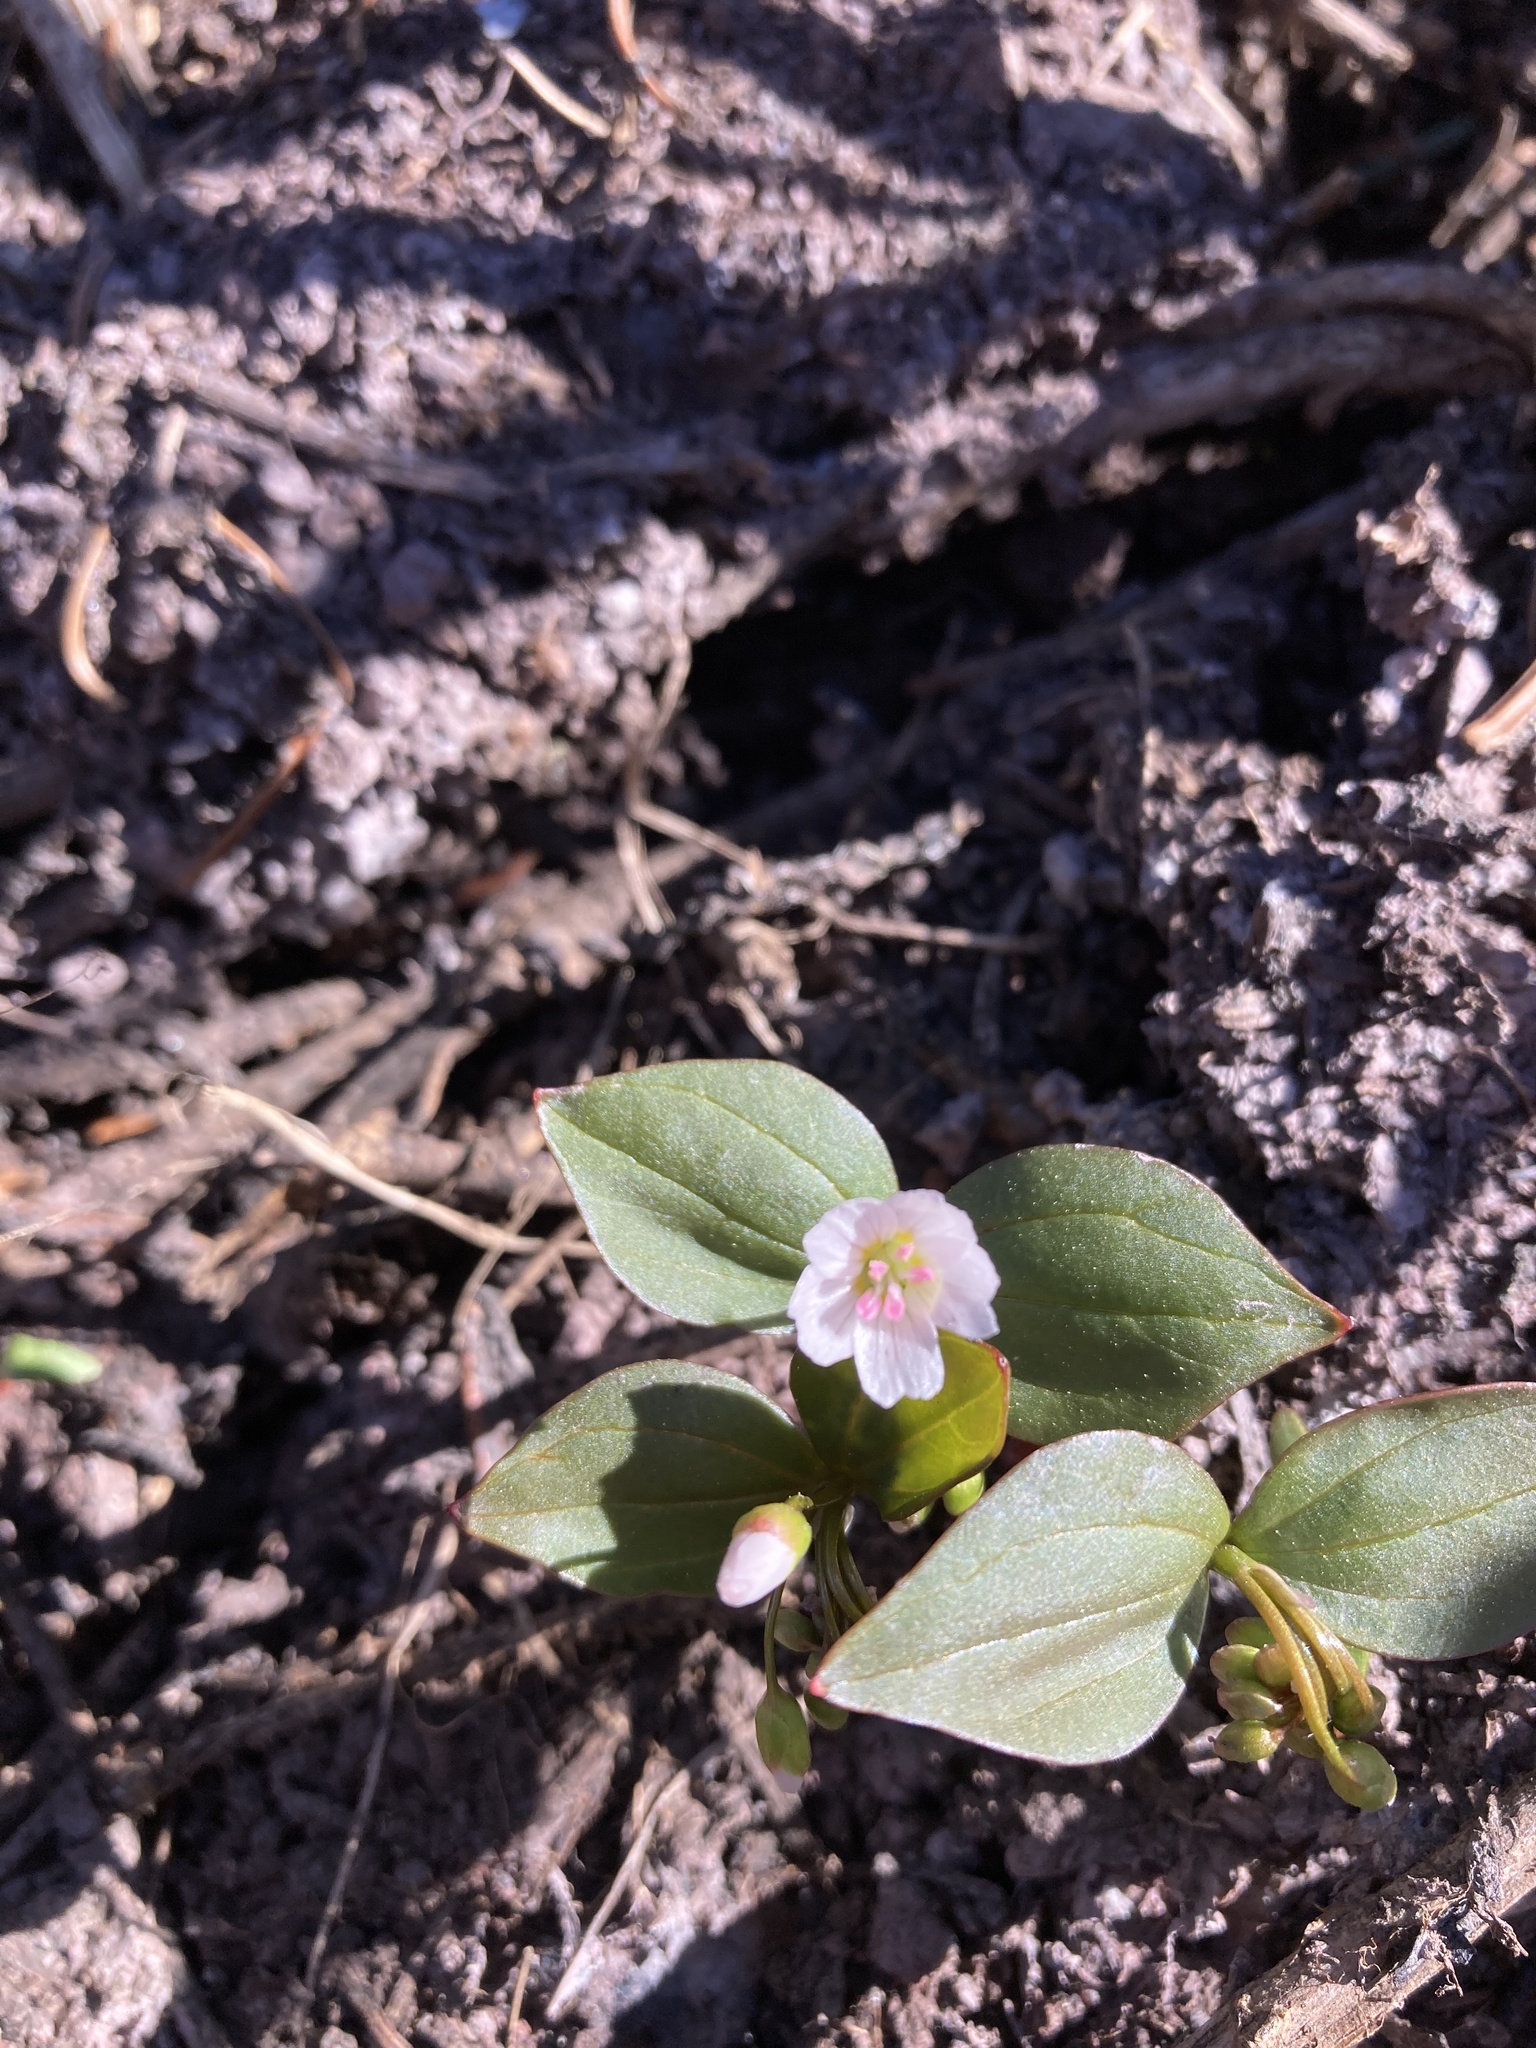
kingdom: Plantae
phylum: Tracheophyta
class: Magnoliopsida
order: Caryophyllales
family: Montiaceae
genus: Claytonia
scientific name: Claytonia lanceolata
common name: Western spring-beauty
